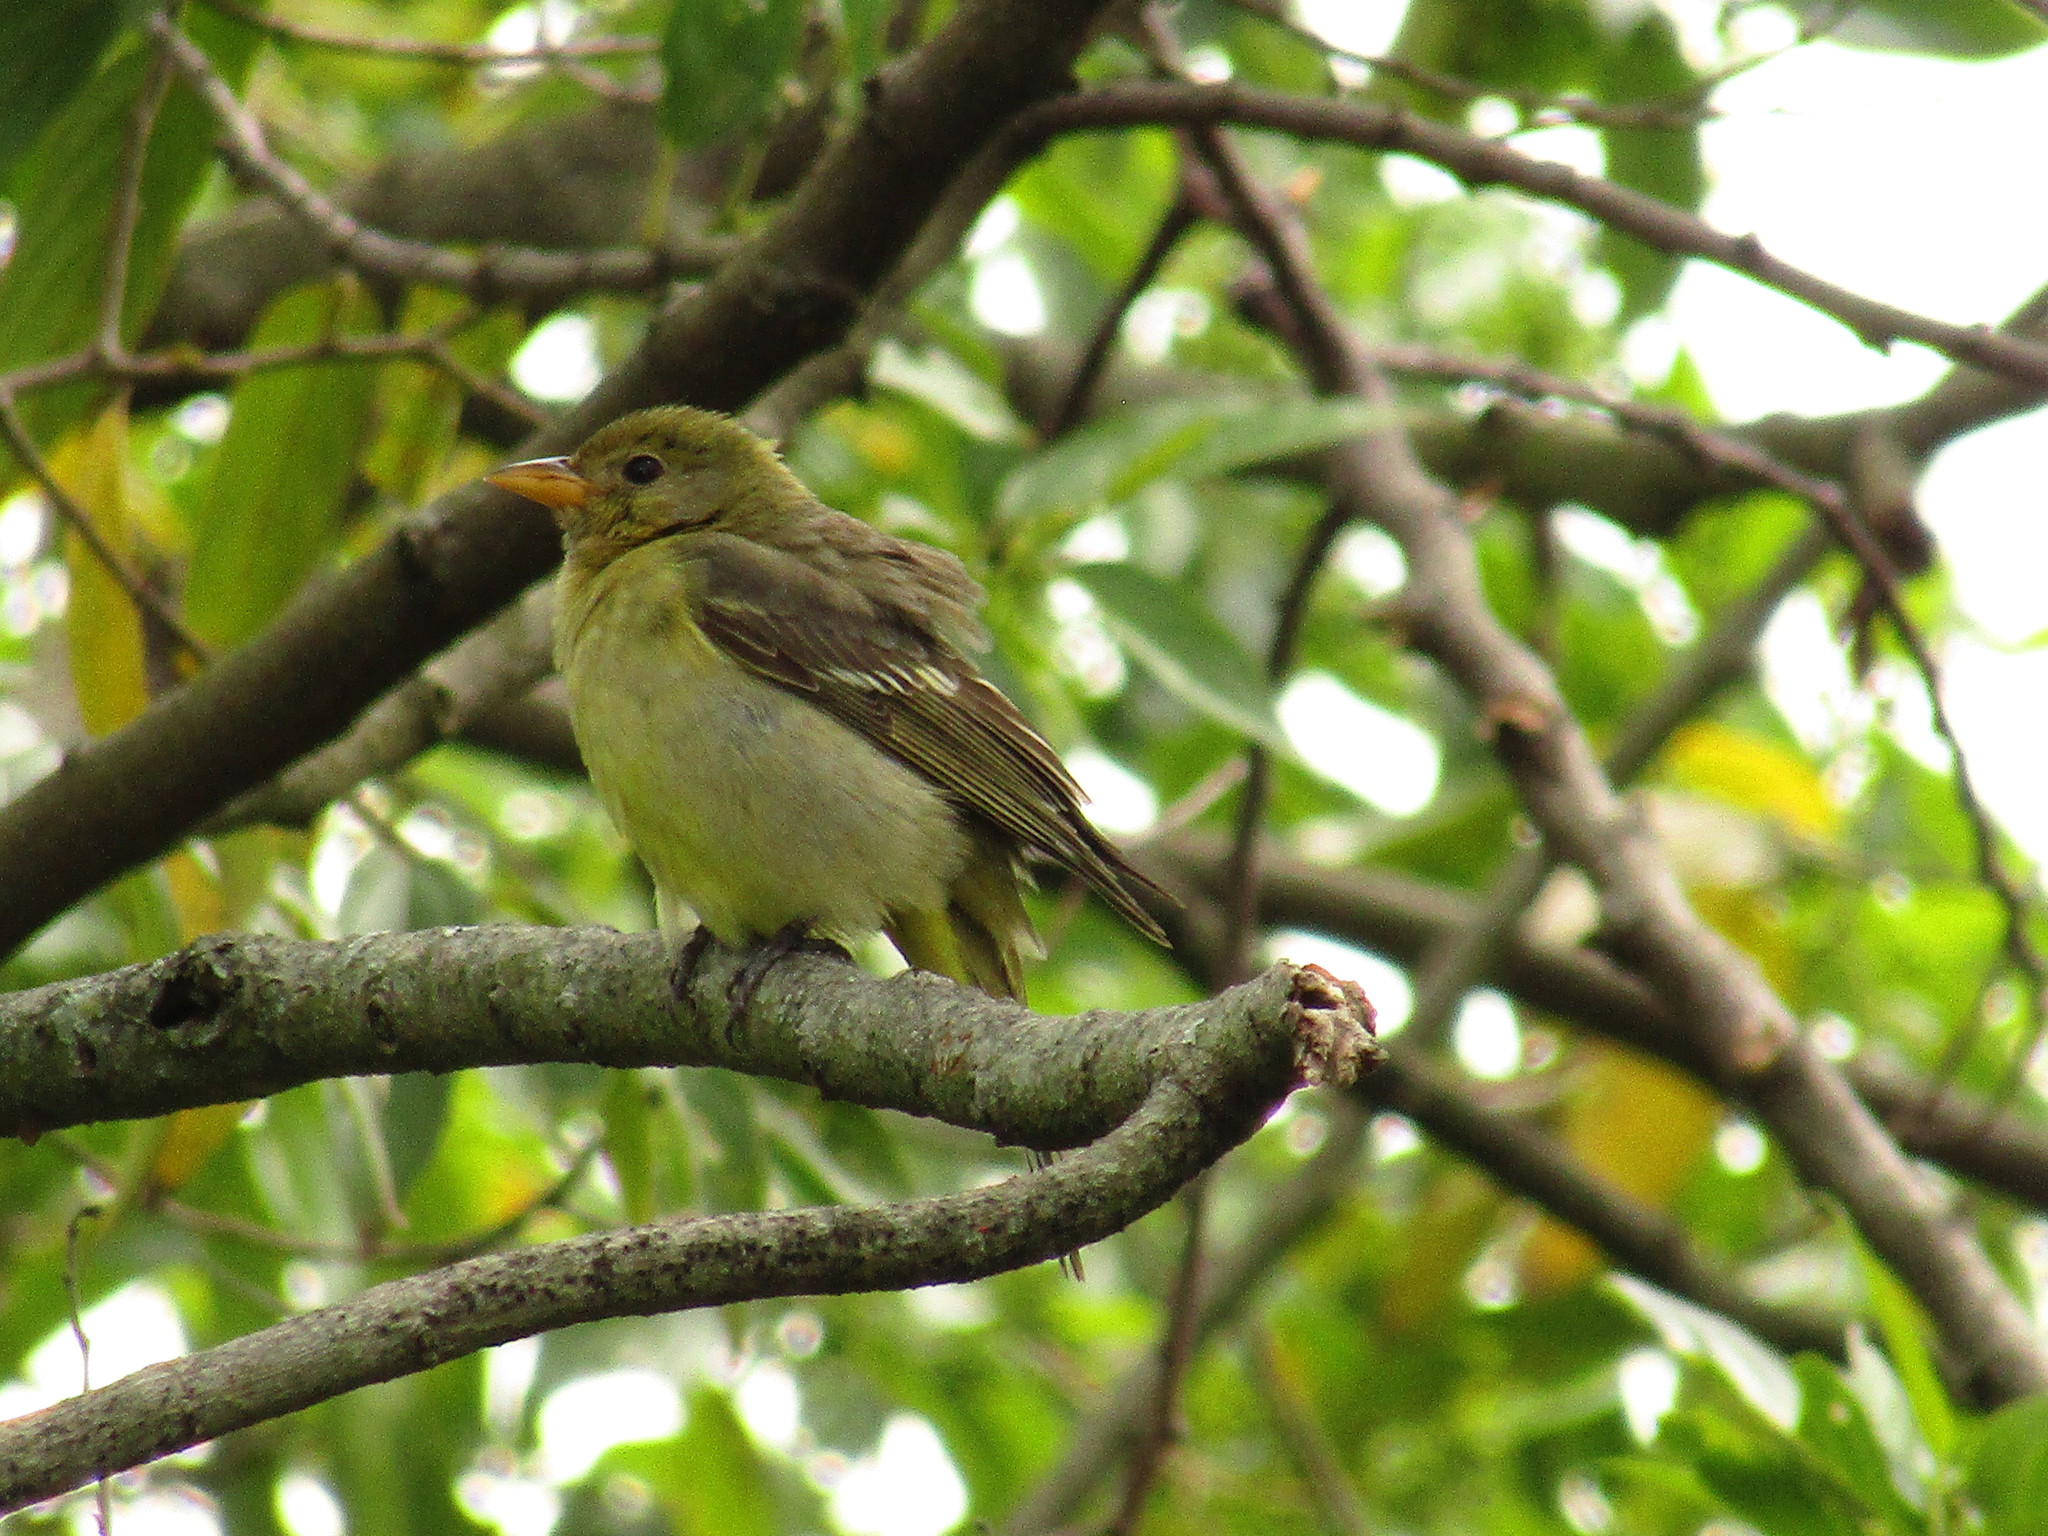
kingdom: Animalia
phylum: Chordata
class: Aves
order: Passeriformes
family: Cardinalidae
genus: Piranga
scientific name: Piranga ludoviciana
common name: Western tanager
